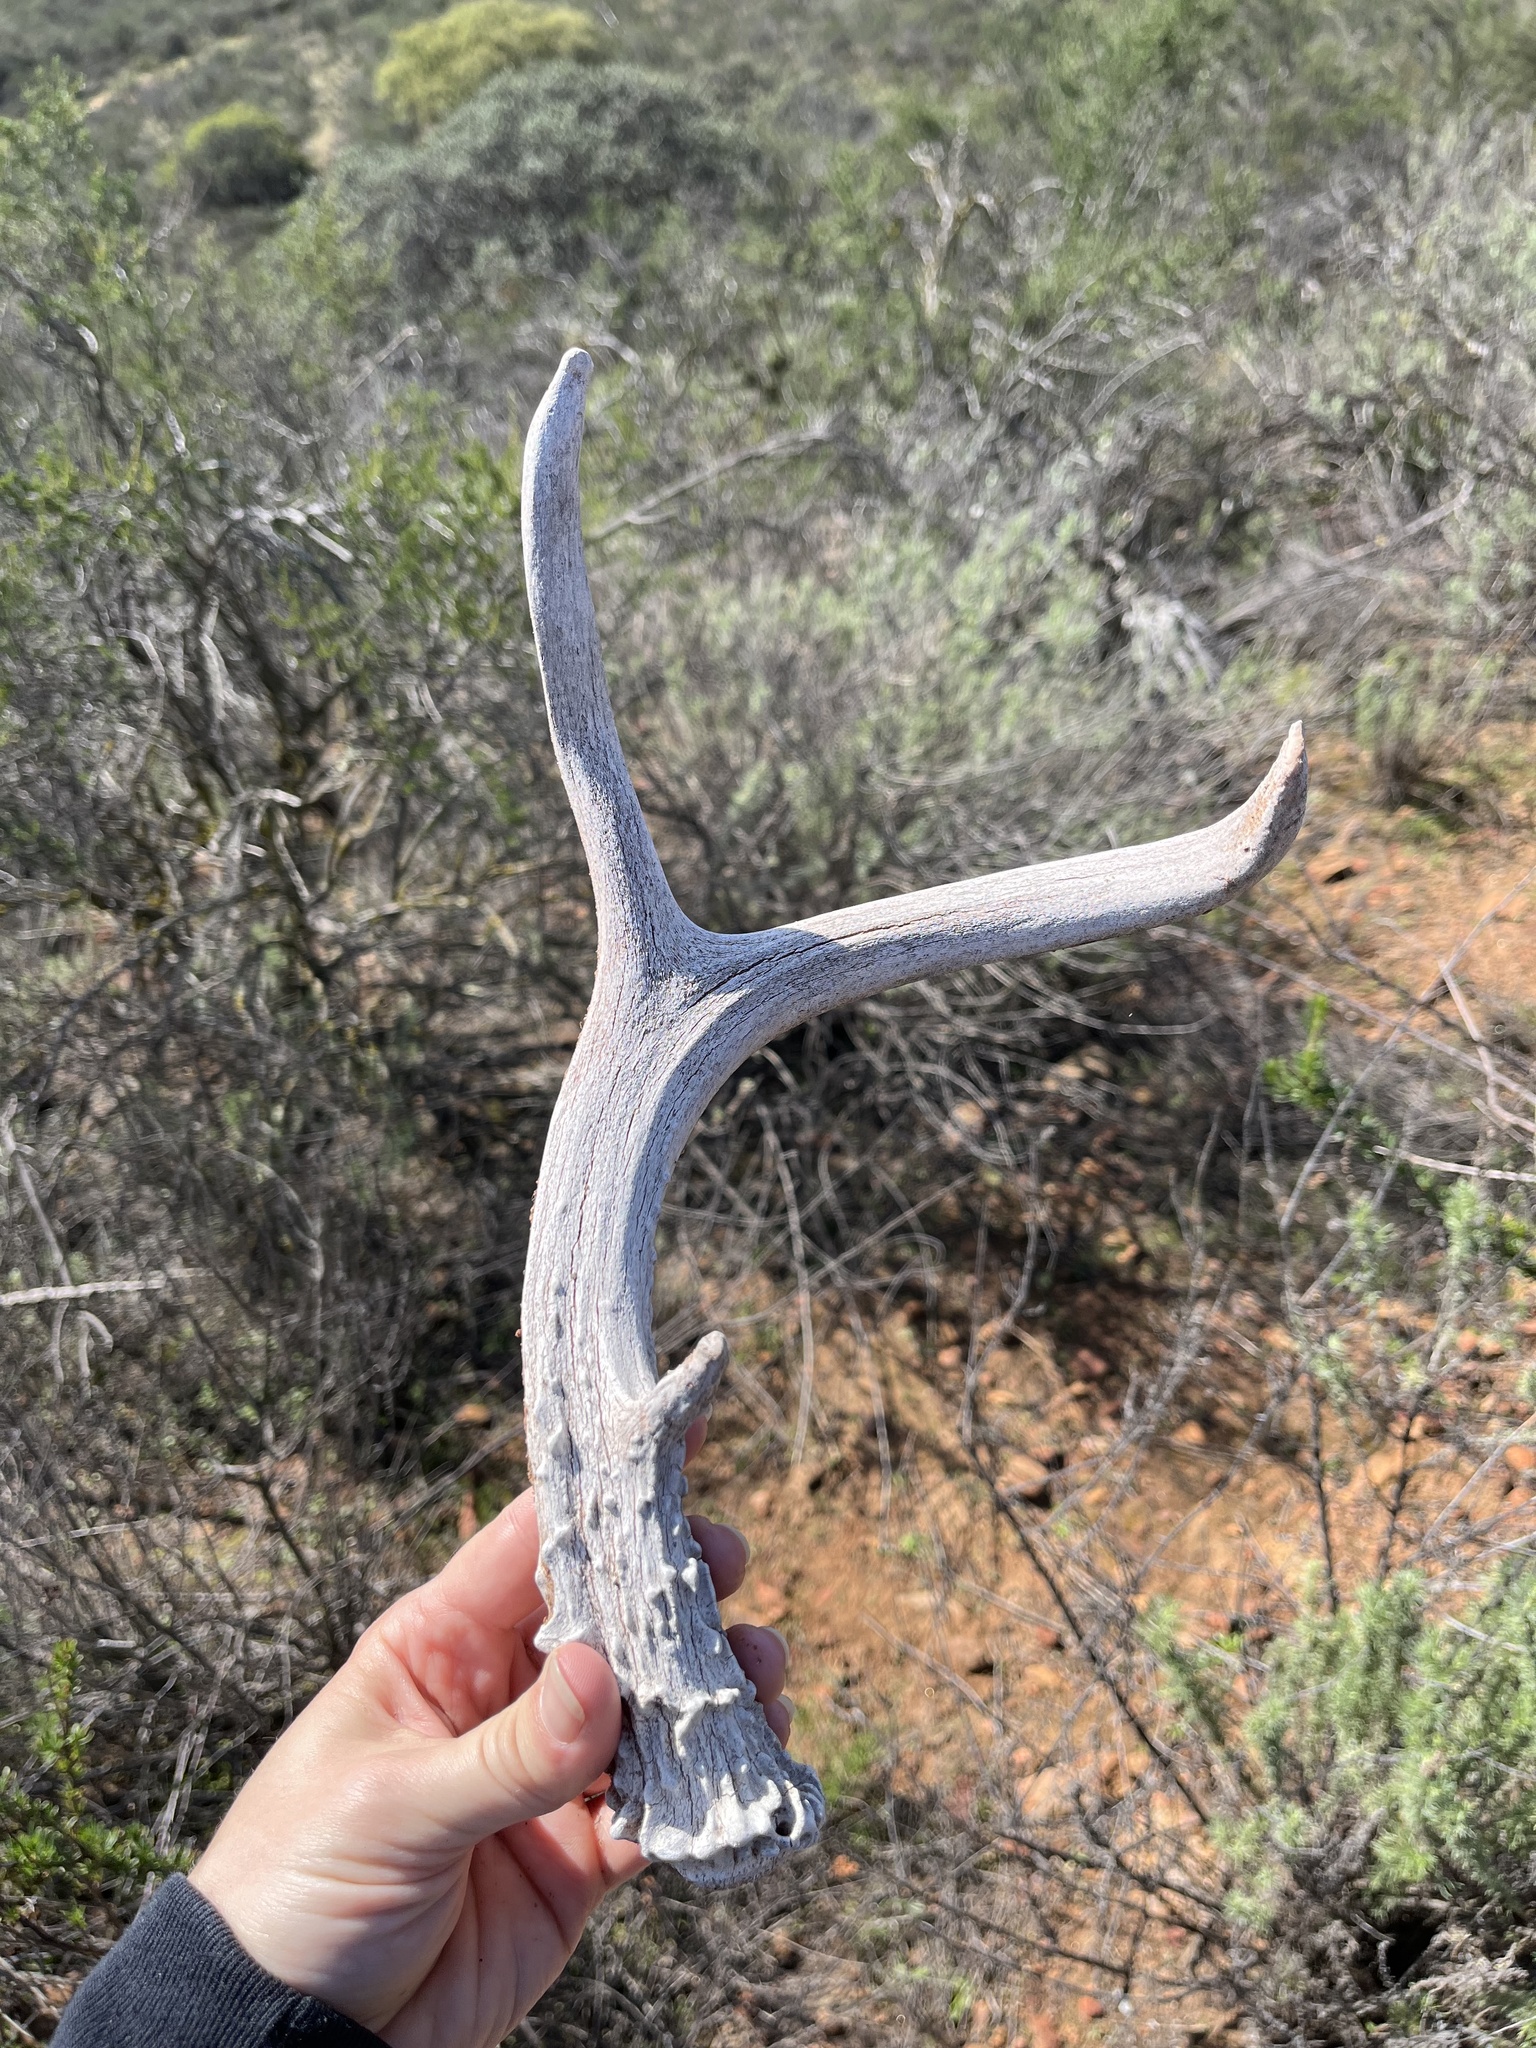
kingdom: Animalia
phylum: Chordata
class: Mammalia
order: Artiodactyla
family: Cervidae
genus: Odocoileus
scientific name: Odocoileus hemionus
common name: Mule deer
